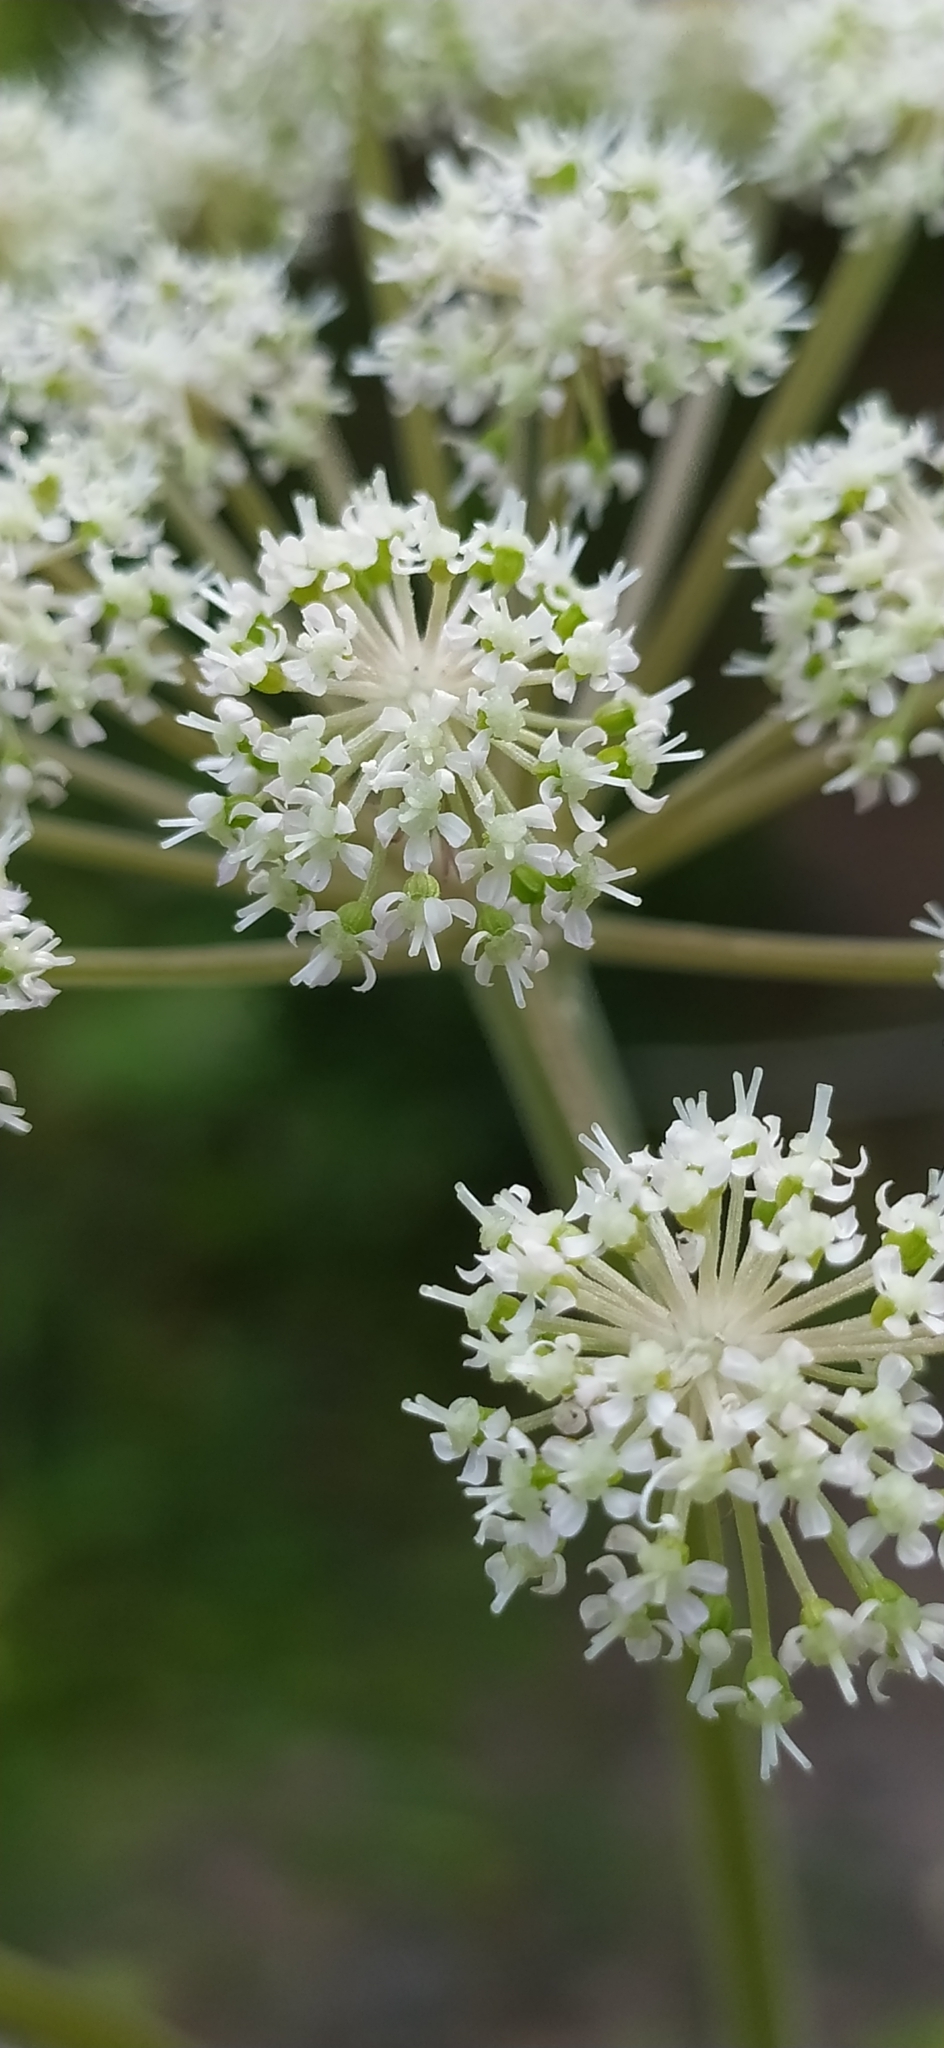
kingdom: Plantae
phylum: Tracheophyta
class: Magnoliopsida
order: Apiales
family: Apiaceae
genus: Angelica
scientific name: Angelica sylvestris
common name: Wild angelica
